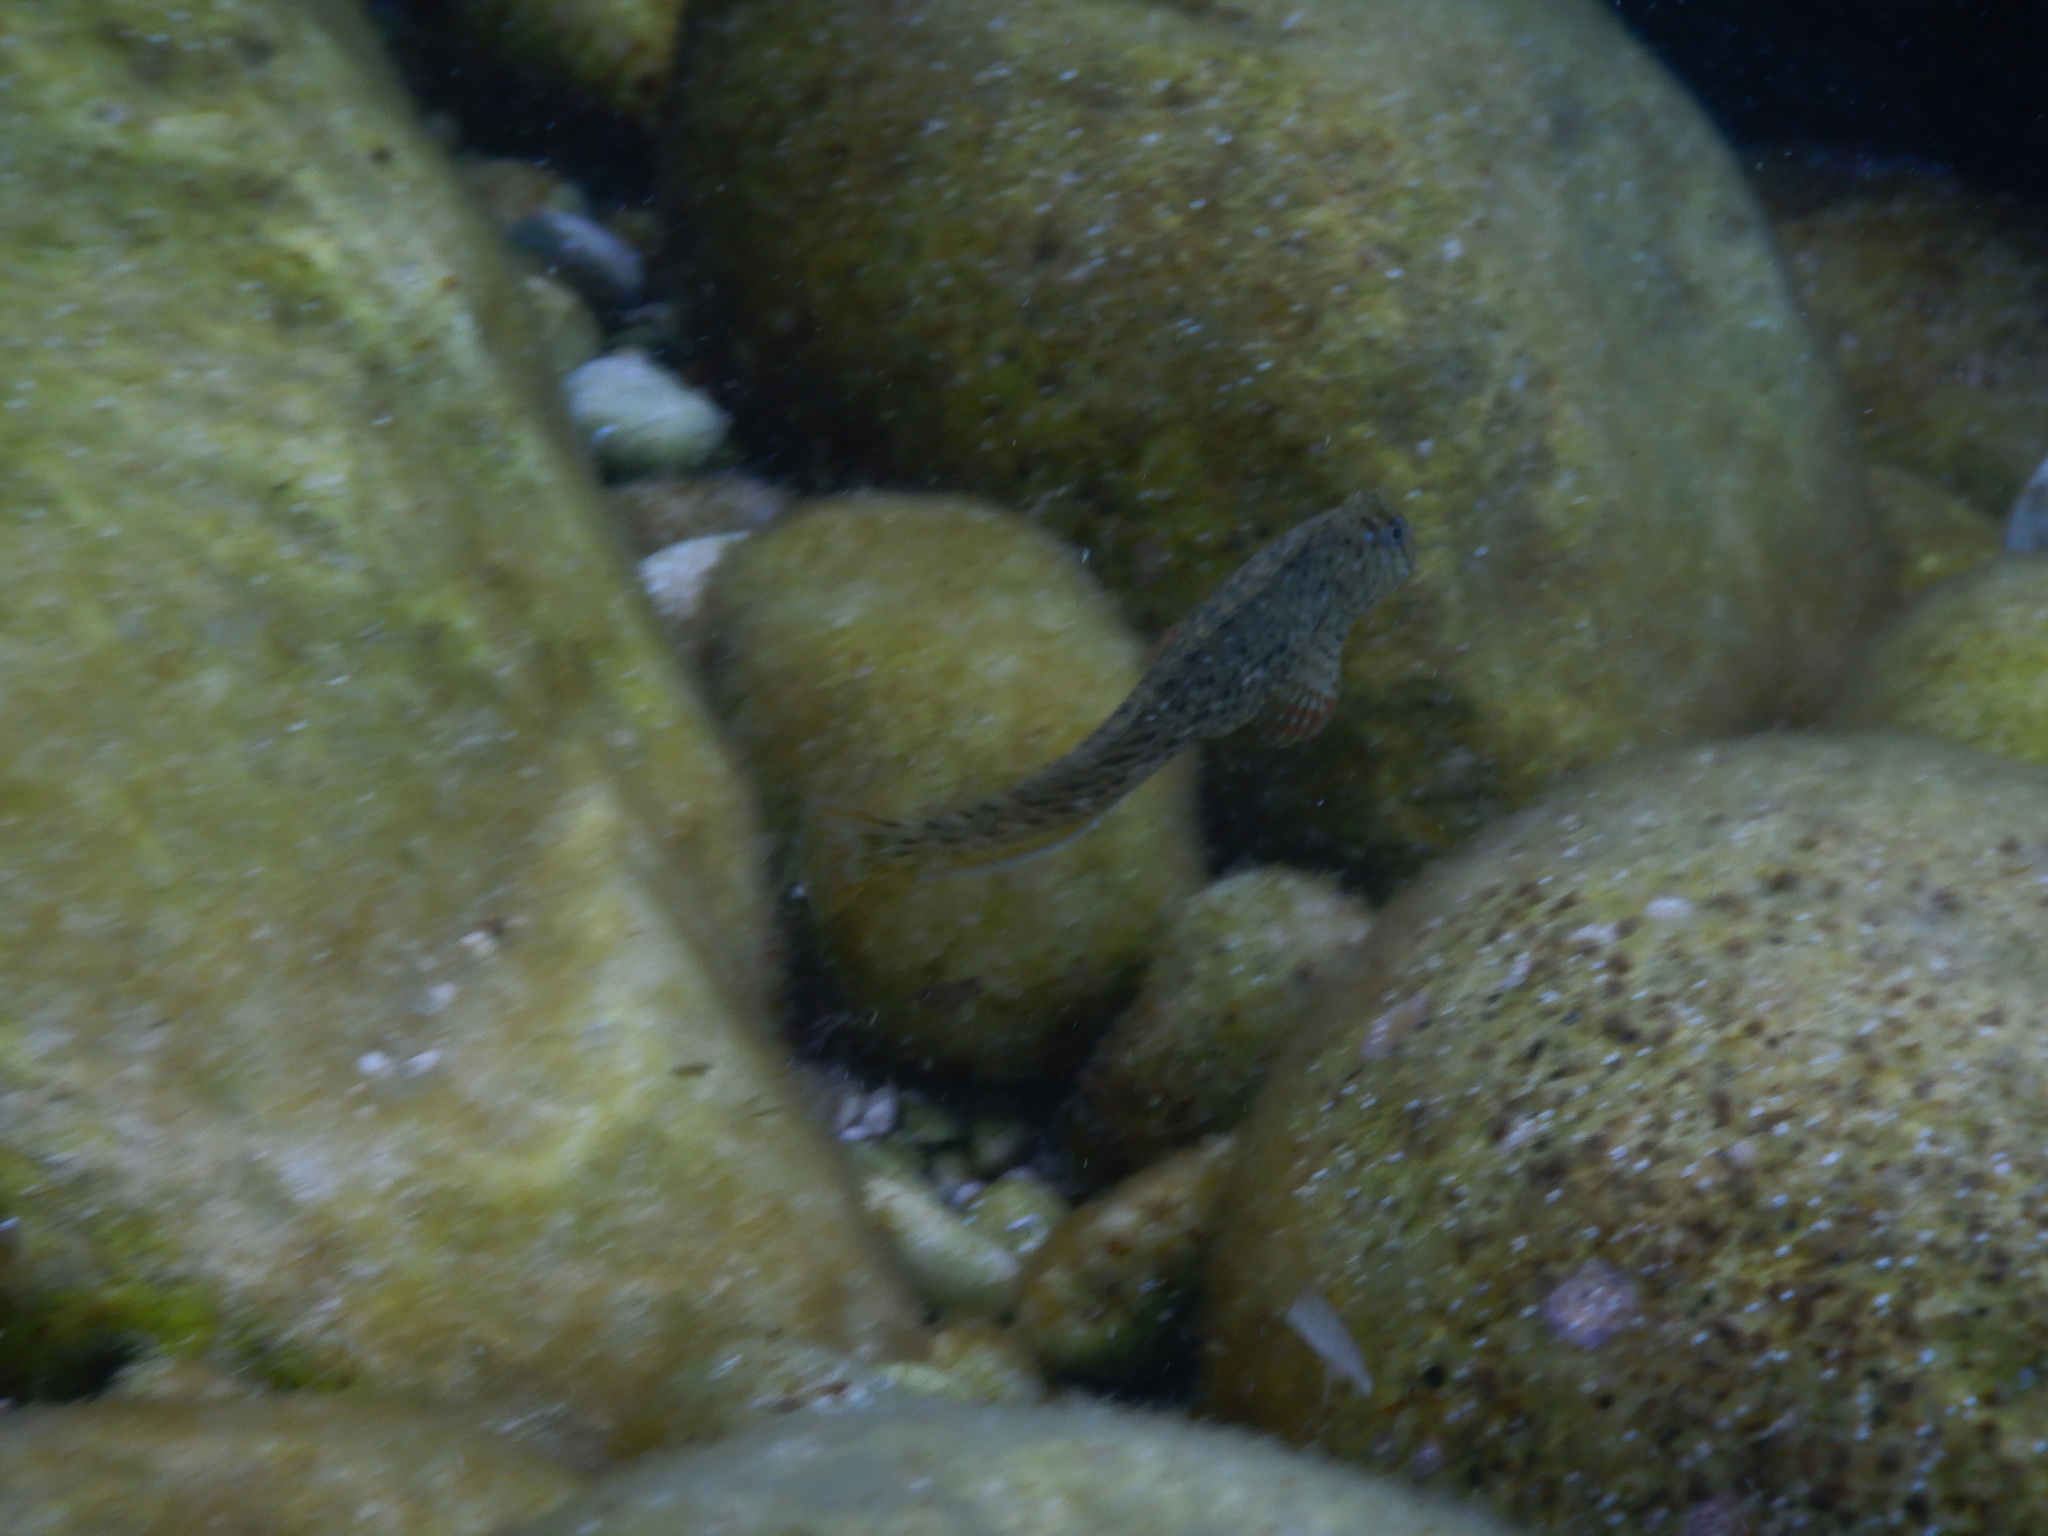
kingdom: Animalia
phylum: Chordata
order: Perciformes
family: Blenniidae
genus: Parablennius
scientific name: Parablennius sanguinolentus
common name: Black sea blenny
